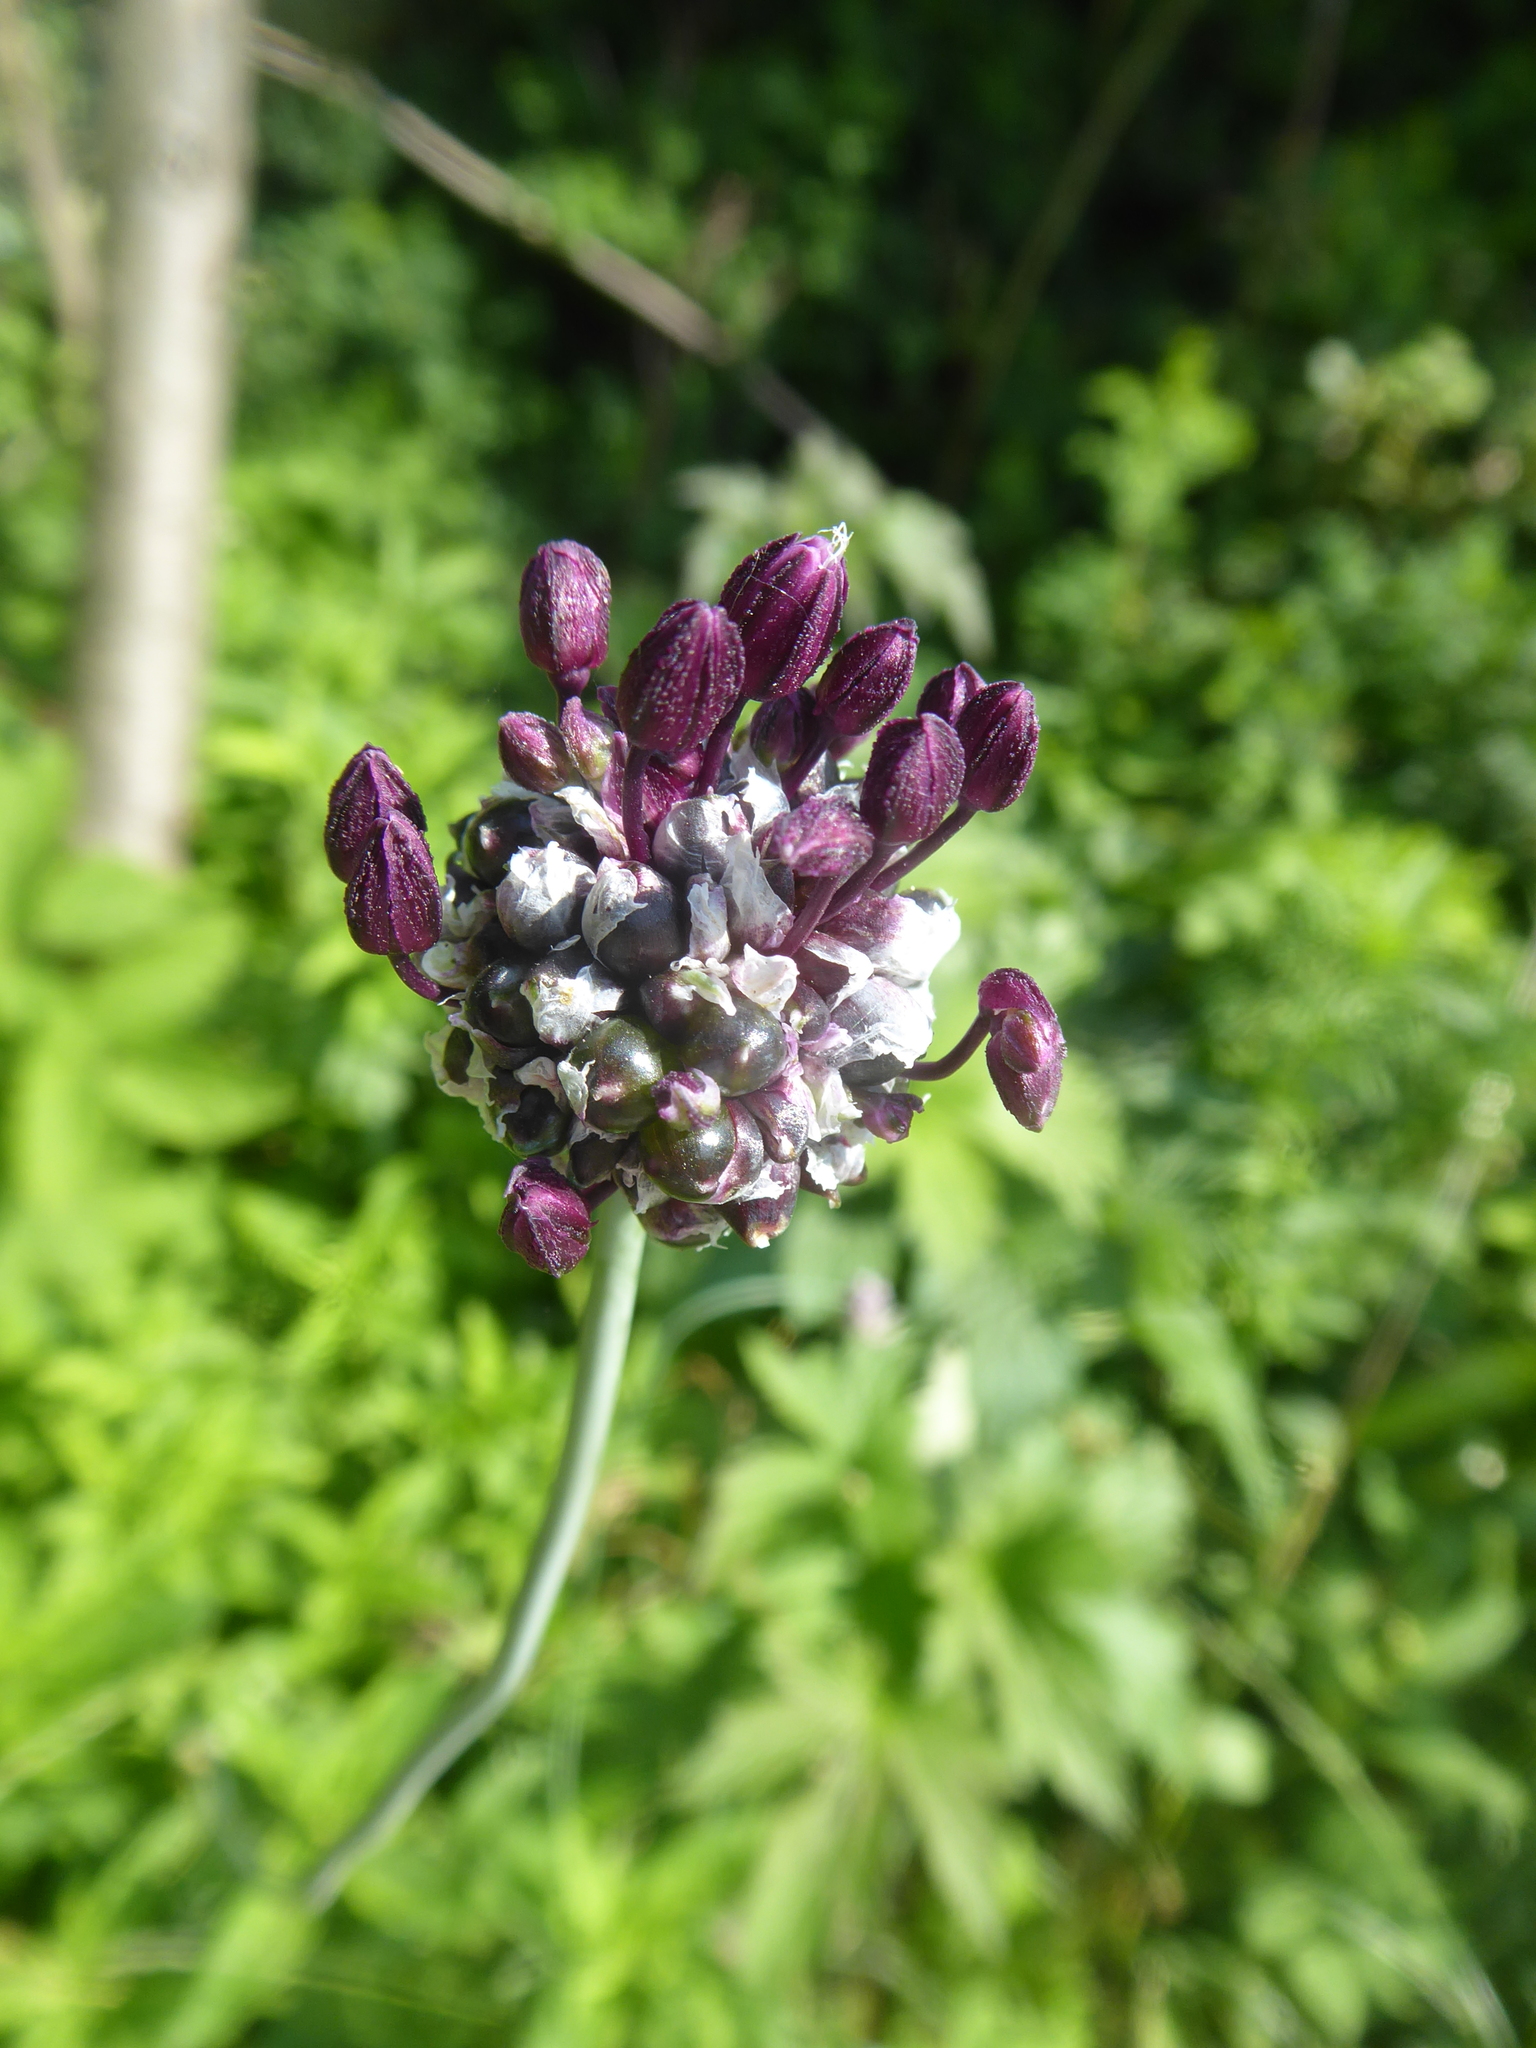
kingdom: Plantae
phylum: Tracheophyta
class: Liliopsida
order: Asparagales
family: Amaryllidaceae
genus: Allium
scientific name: Allium scorodoprasum
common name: Sand leek
